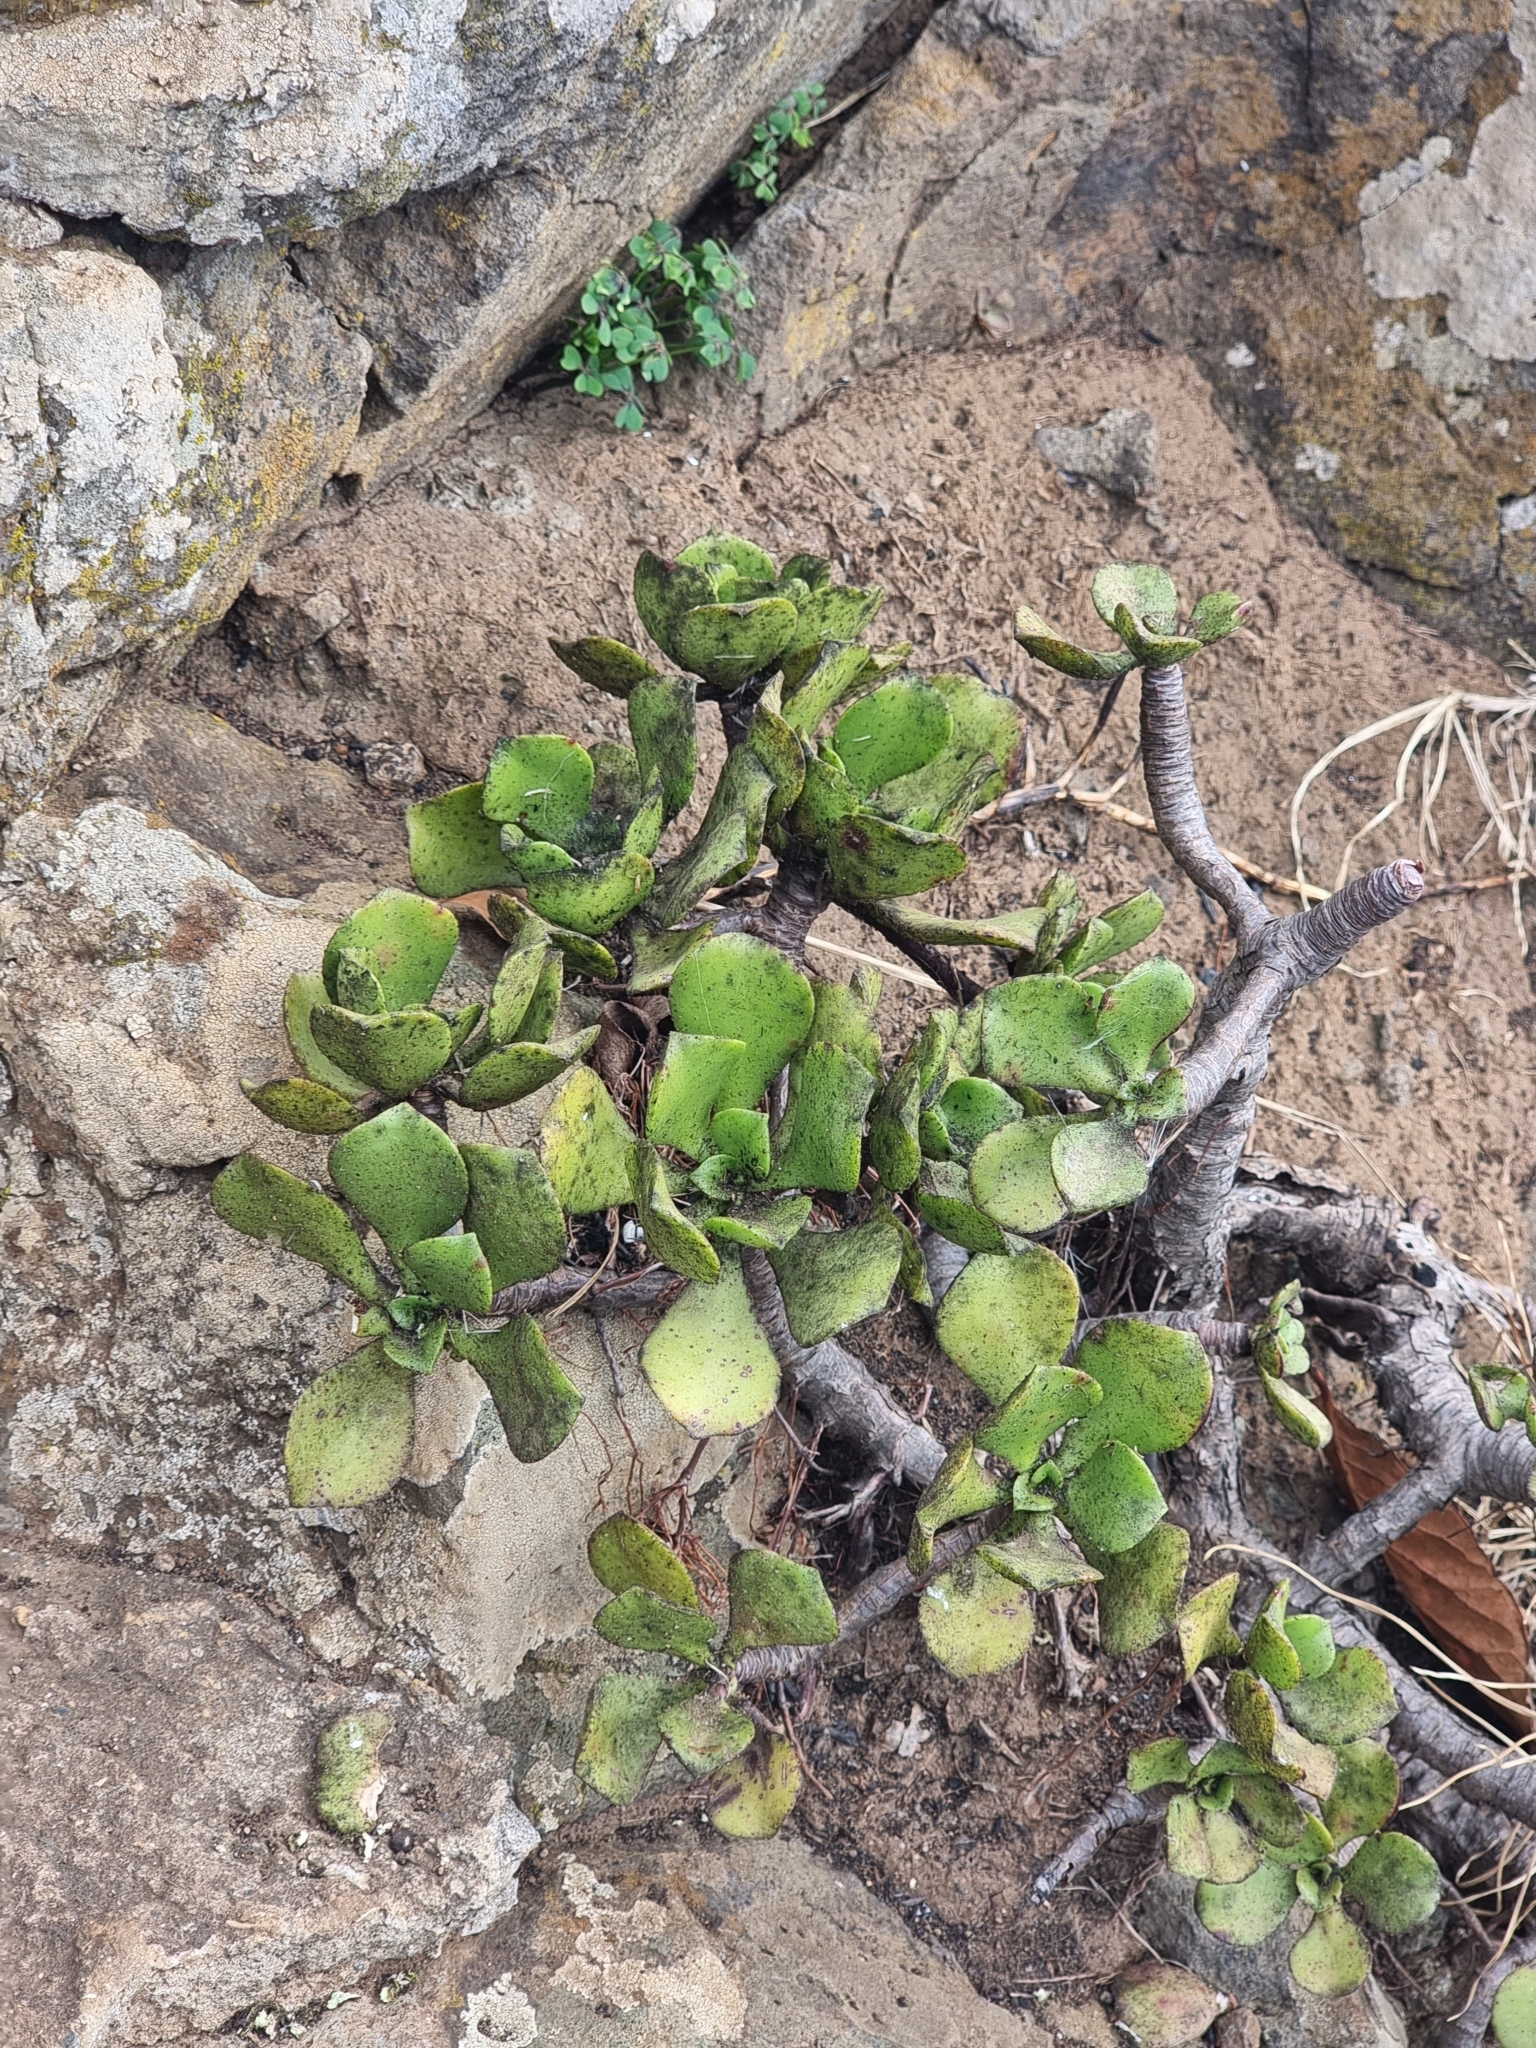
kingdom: Plantae
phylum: Tracheophyta
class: Magnoliopsida
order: Saxifragales
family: Crassulaceae
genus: Aeonium
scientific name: Aeonium glutinosum
